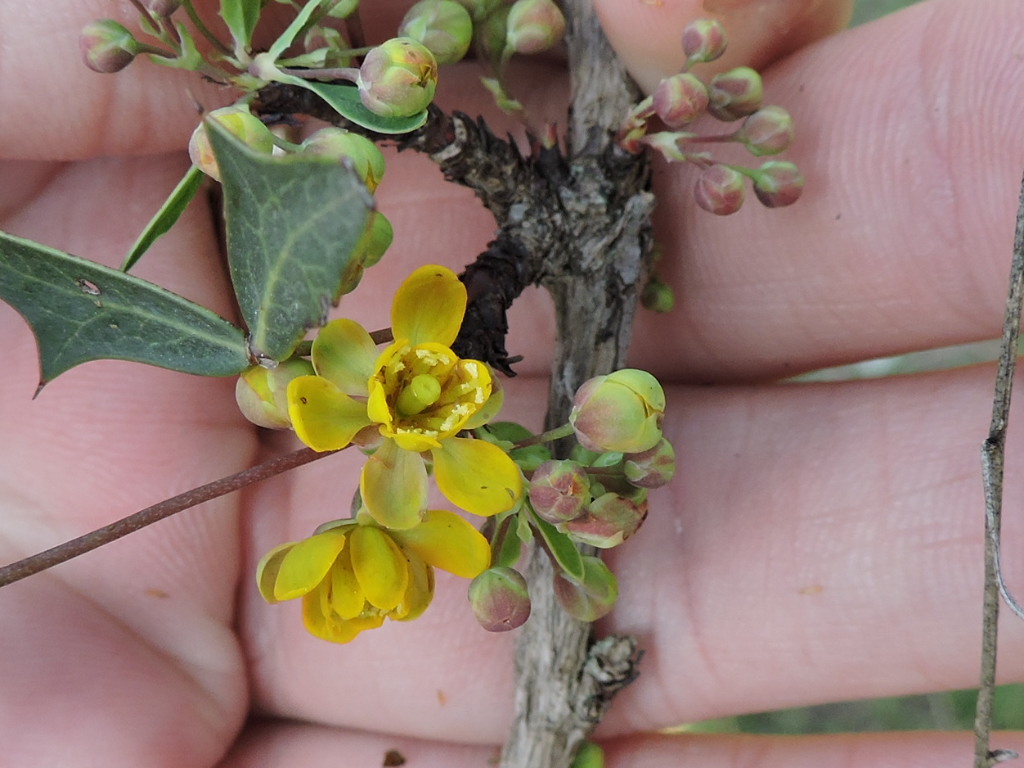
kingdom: Plantae
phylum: Tracheophyta
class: Magnoliopsida
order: Ranunculales
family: Berberidaceae
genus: Alloberberis
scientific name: Alloberberis trifoliolata
